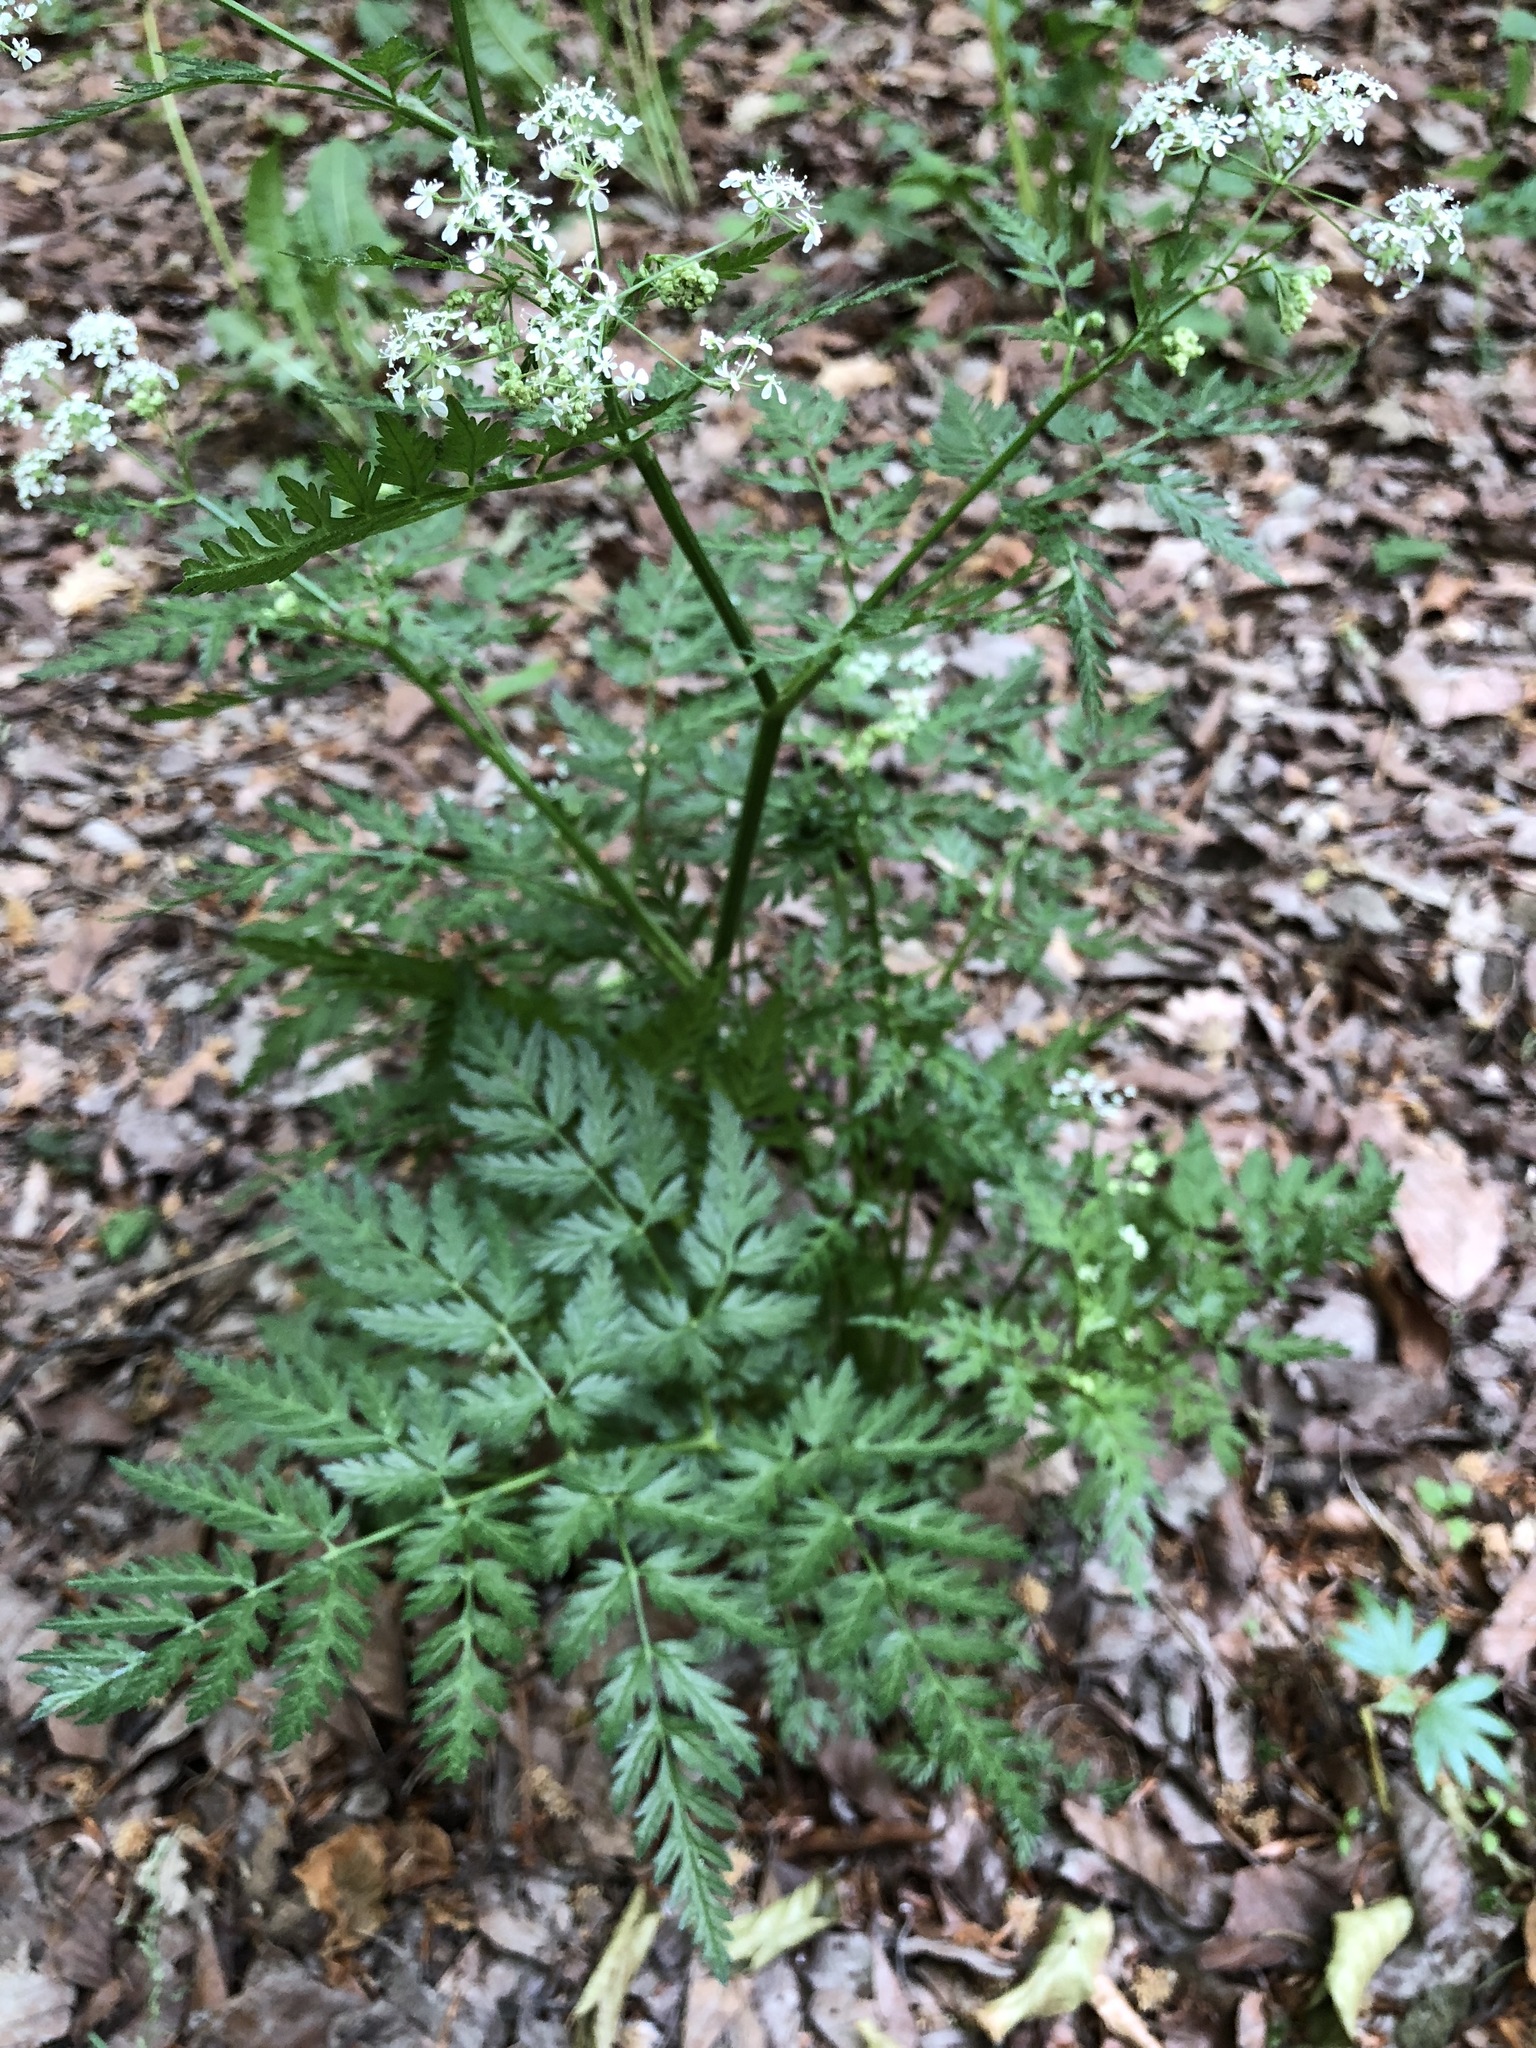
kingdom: Plantae
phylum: Tracheophyta
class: Magnoliopsida
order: Apiales
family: Apiaceae
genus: Anthriscus
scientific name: Anthriscus sylvestris
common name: Cow parsley
